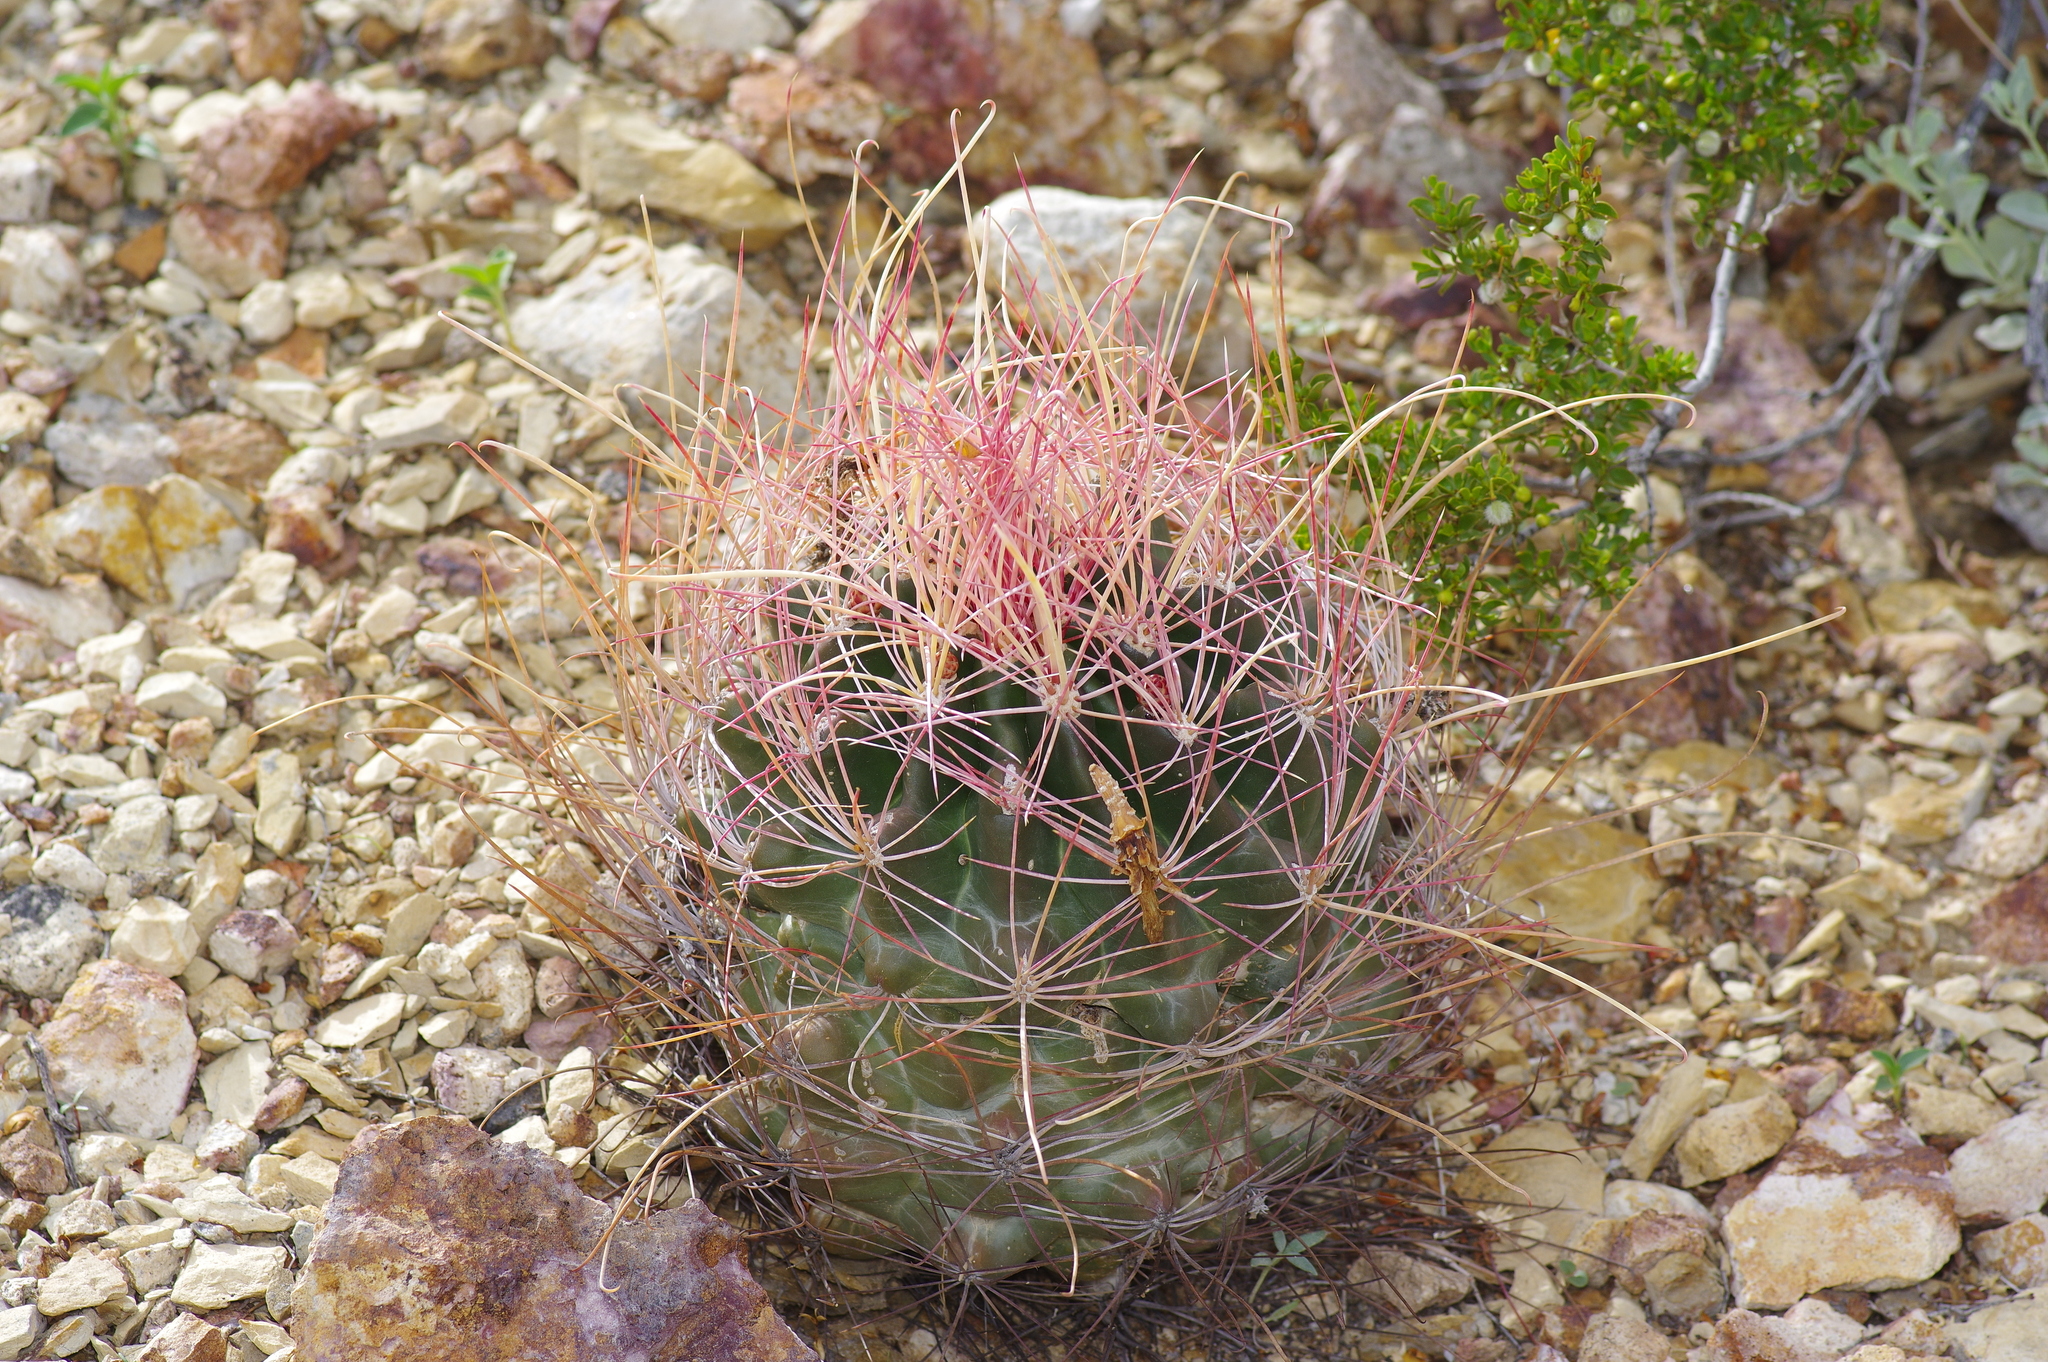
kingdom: Plantae
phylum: Tracheophyta
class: Magnoliopsida
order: Caryophyllales
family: Cactaceae
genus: Bisnaga
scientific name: Bisnaga hamatacantha
